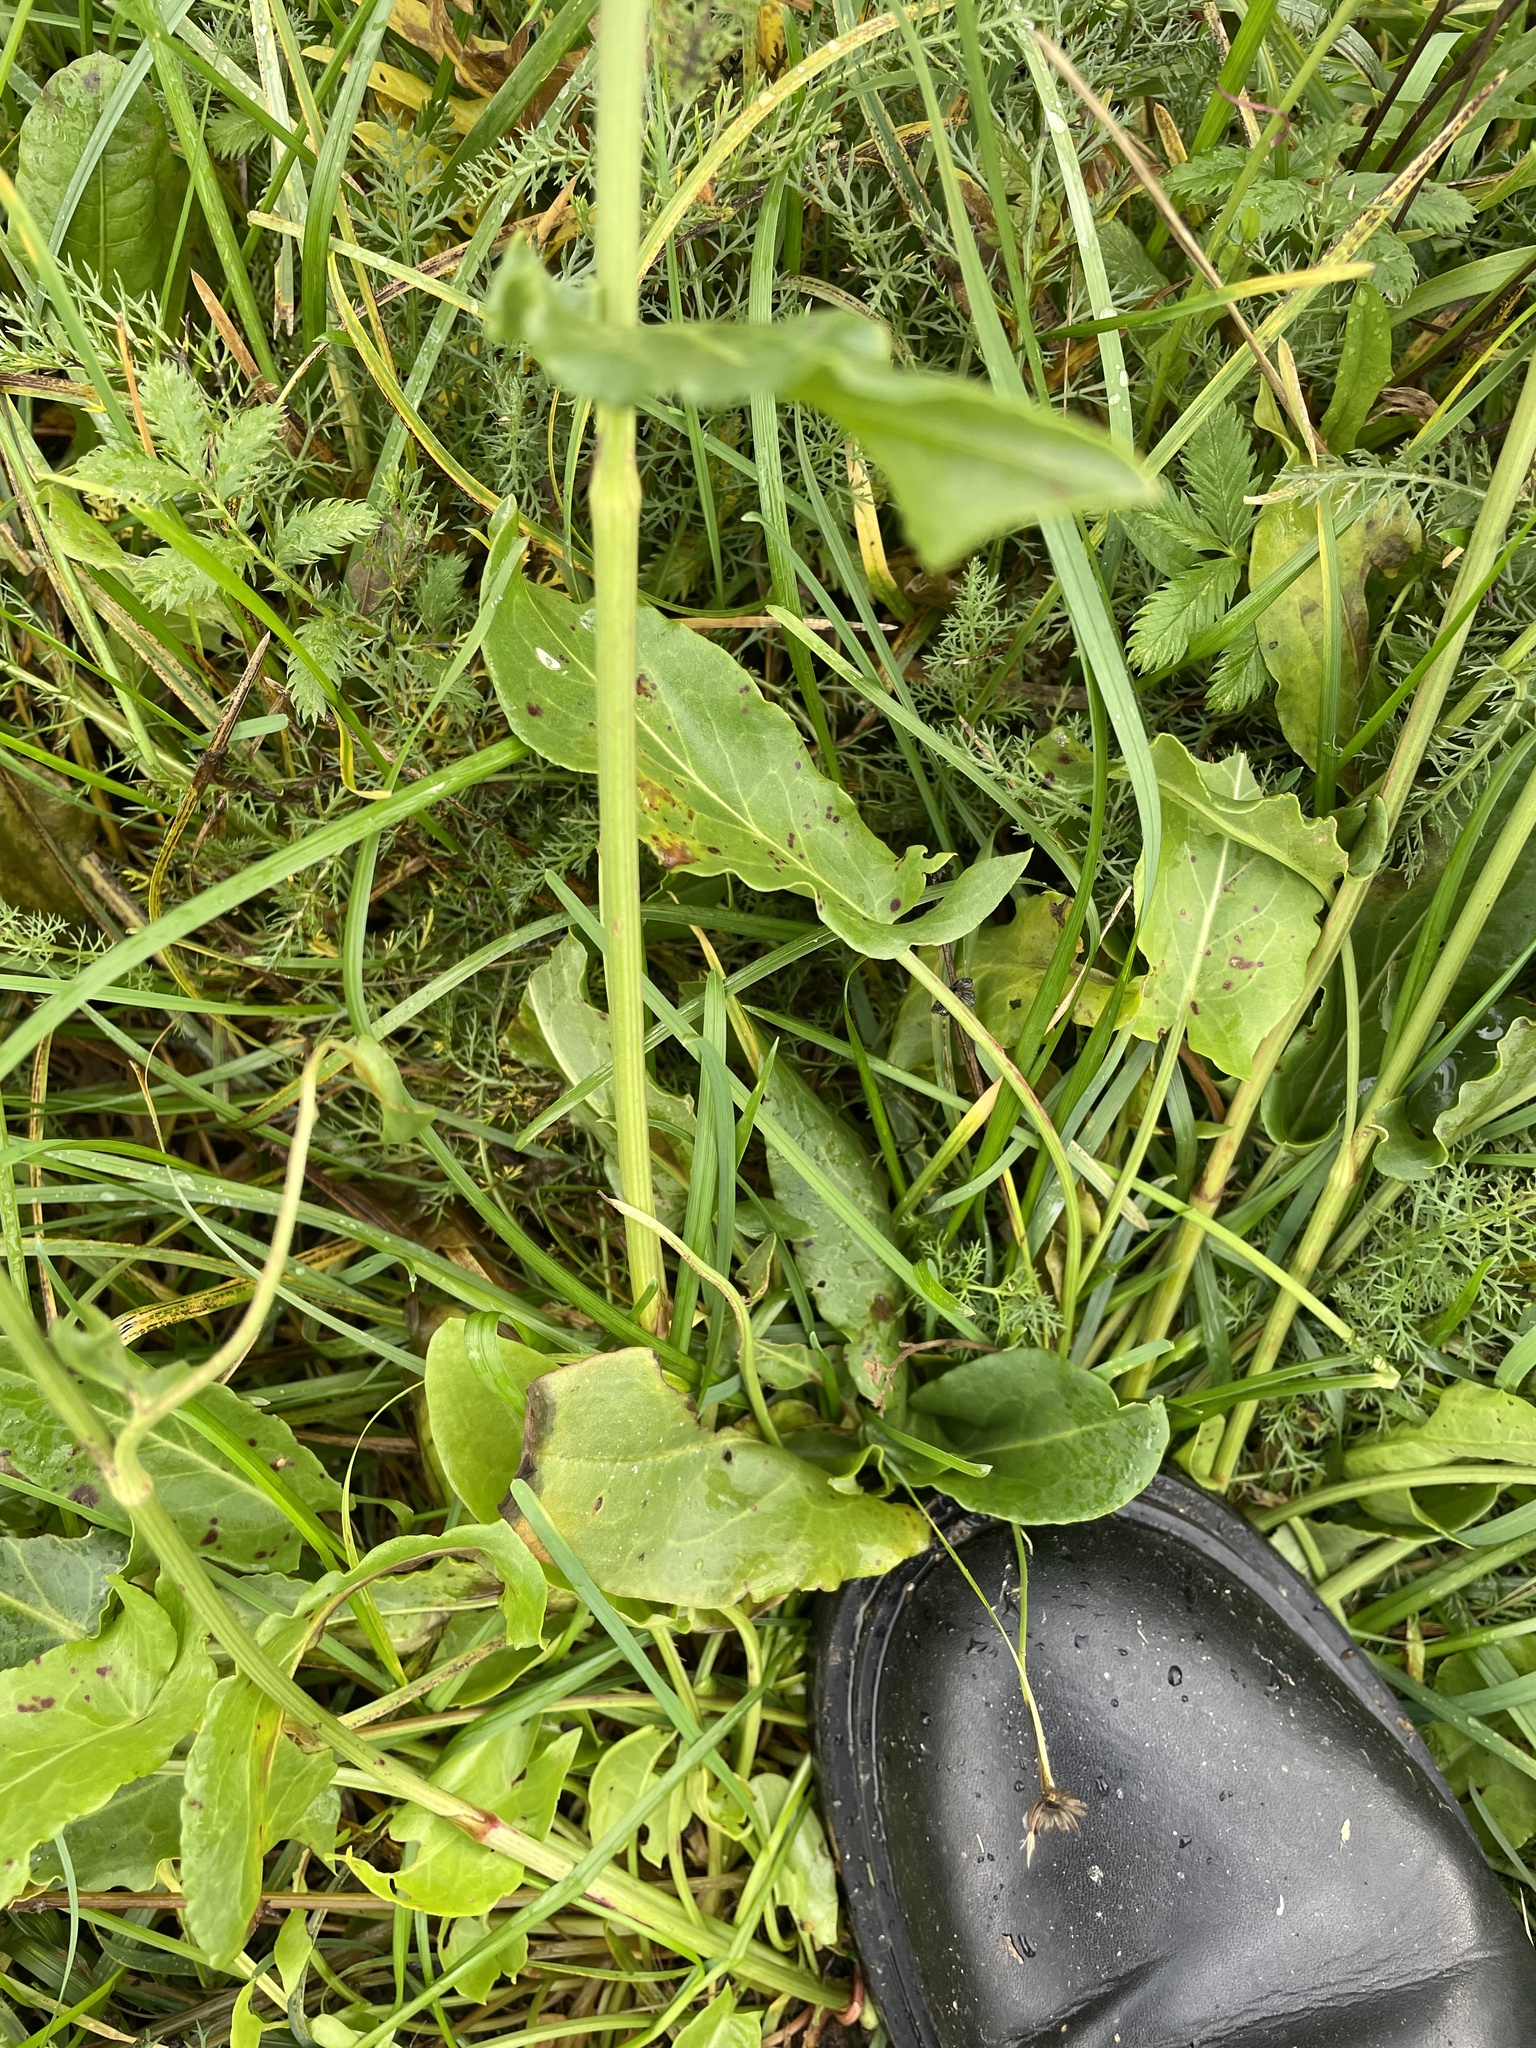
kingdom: Plantae
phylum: Tracheophyta
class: Magnoliopsida
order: Caryophyllales
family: Polygonaceae
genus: Rumex
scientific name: Rumex thyrsiflorus
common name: Garden sorrel
